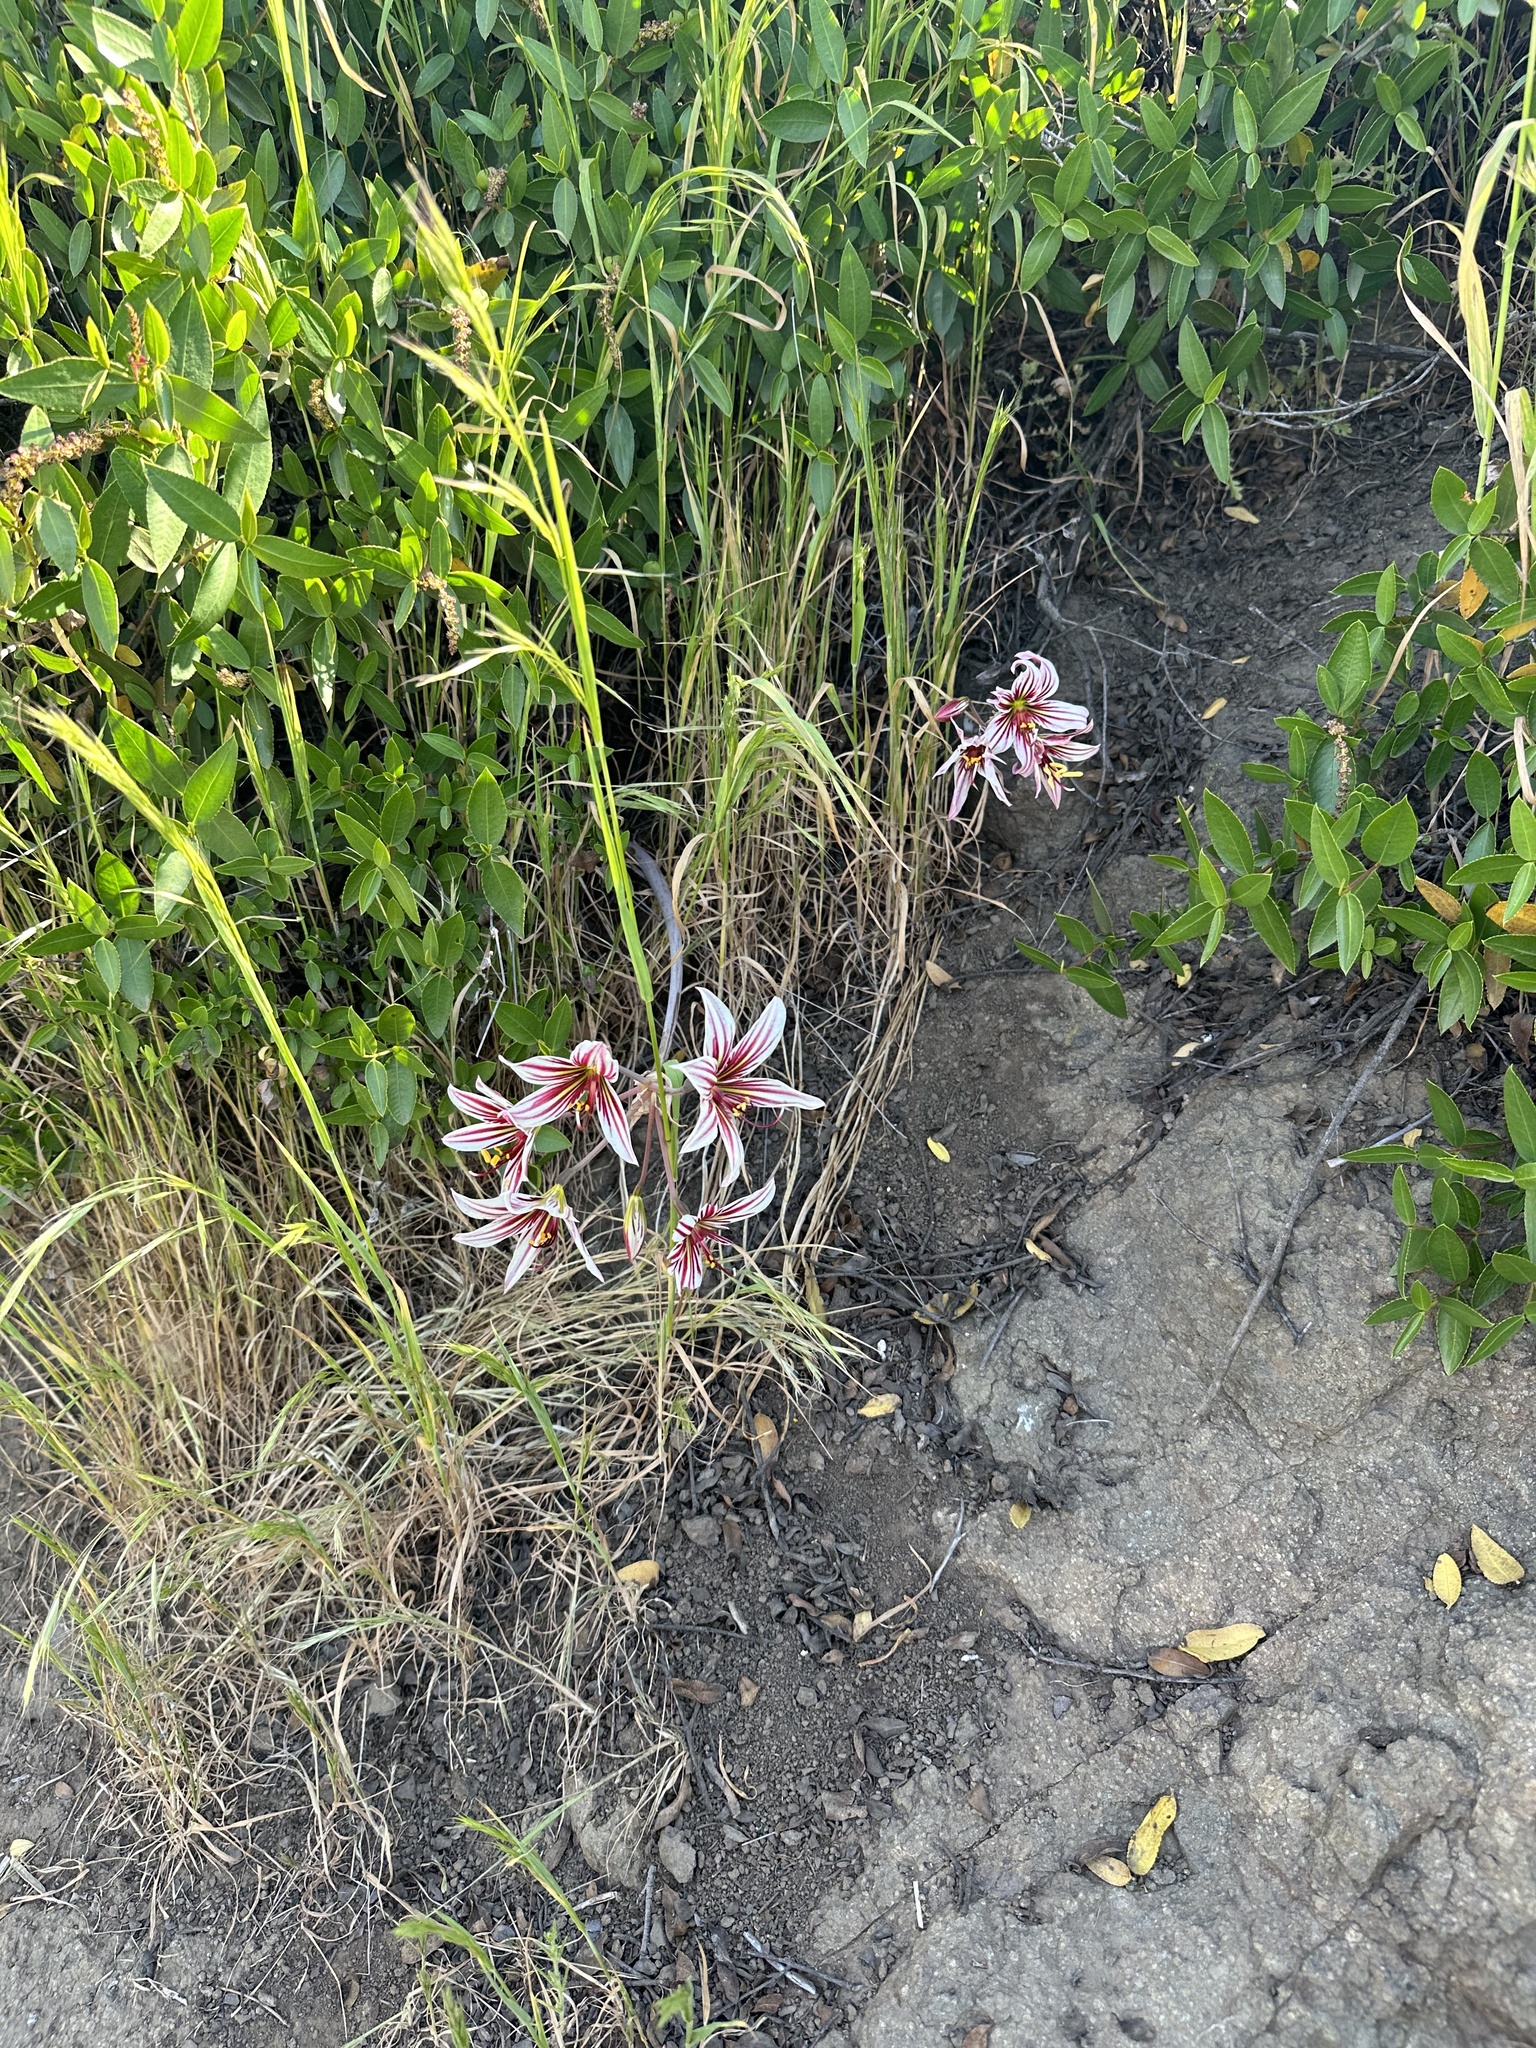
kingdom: Plantae
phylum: Tracheophyta
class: Liliopsida
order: Asparagales
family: Amaryllidaceae
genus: Phycella
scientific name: Phycella arzae
